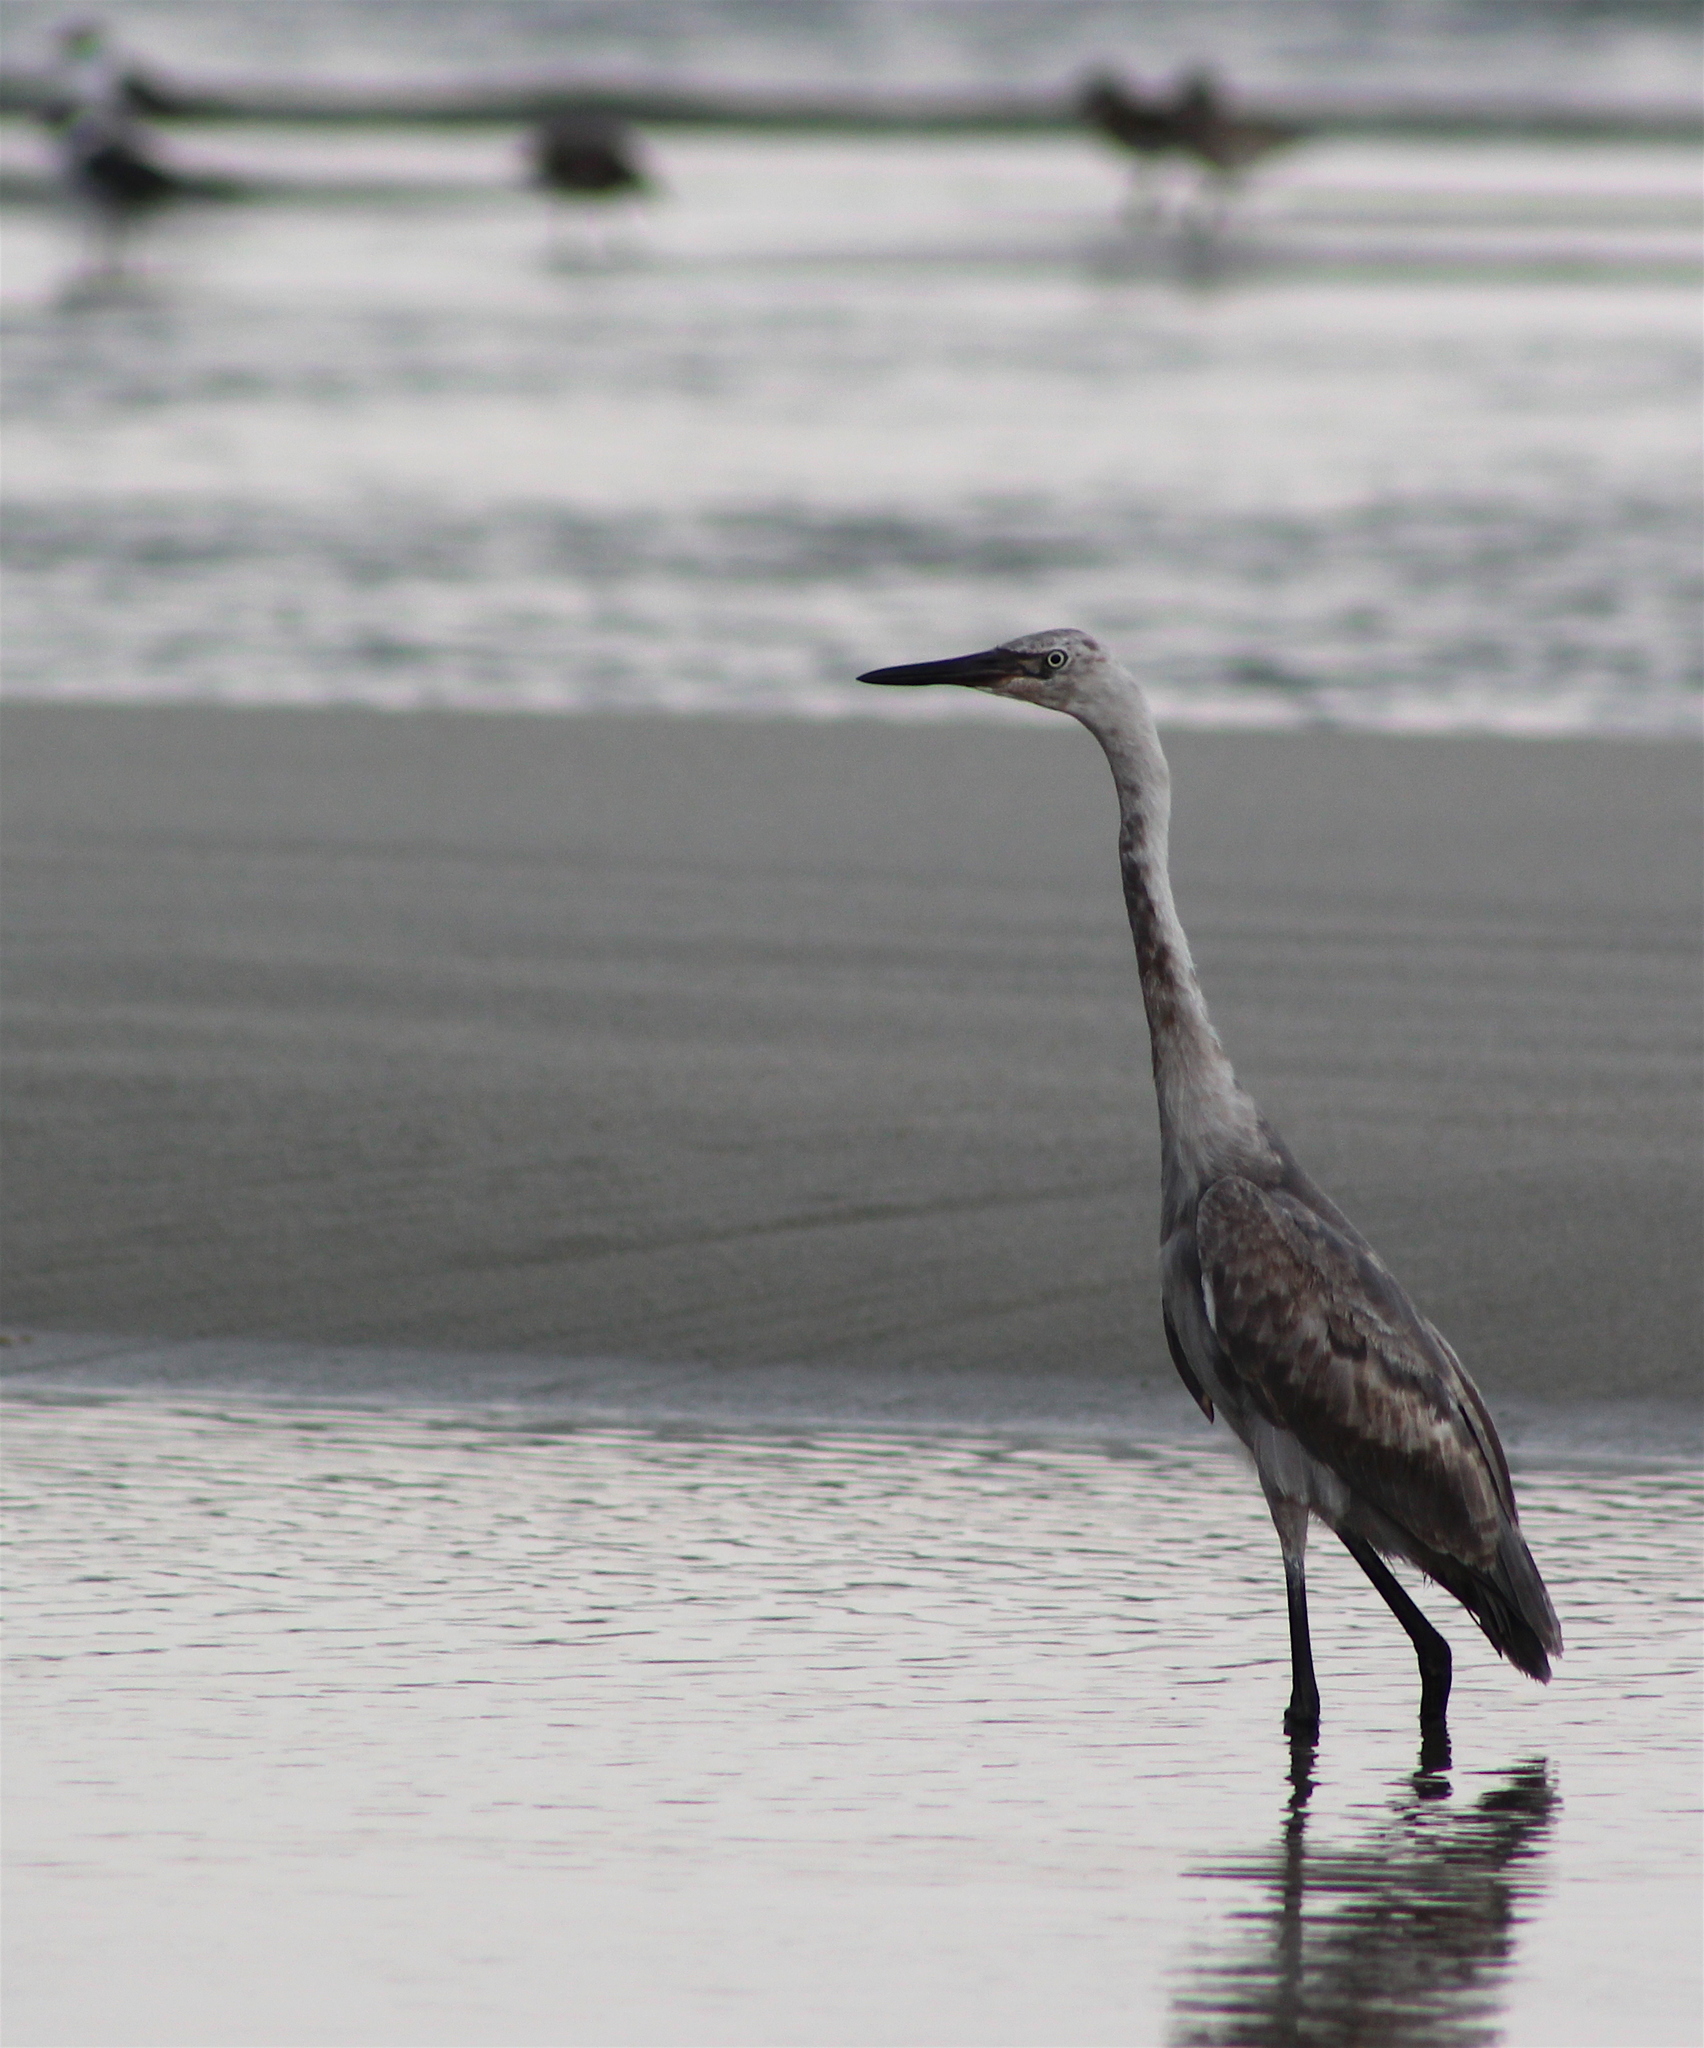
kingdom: Animalia
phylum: Chordata
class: Aves
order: Pelecaniformes
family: Ardeidae
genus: Egretta
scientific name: Egretta rufescens
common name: Reddish egret
